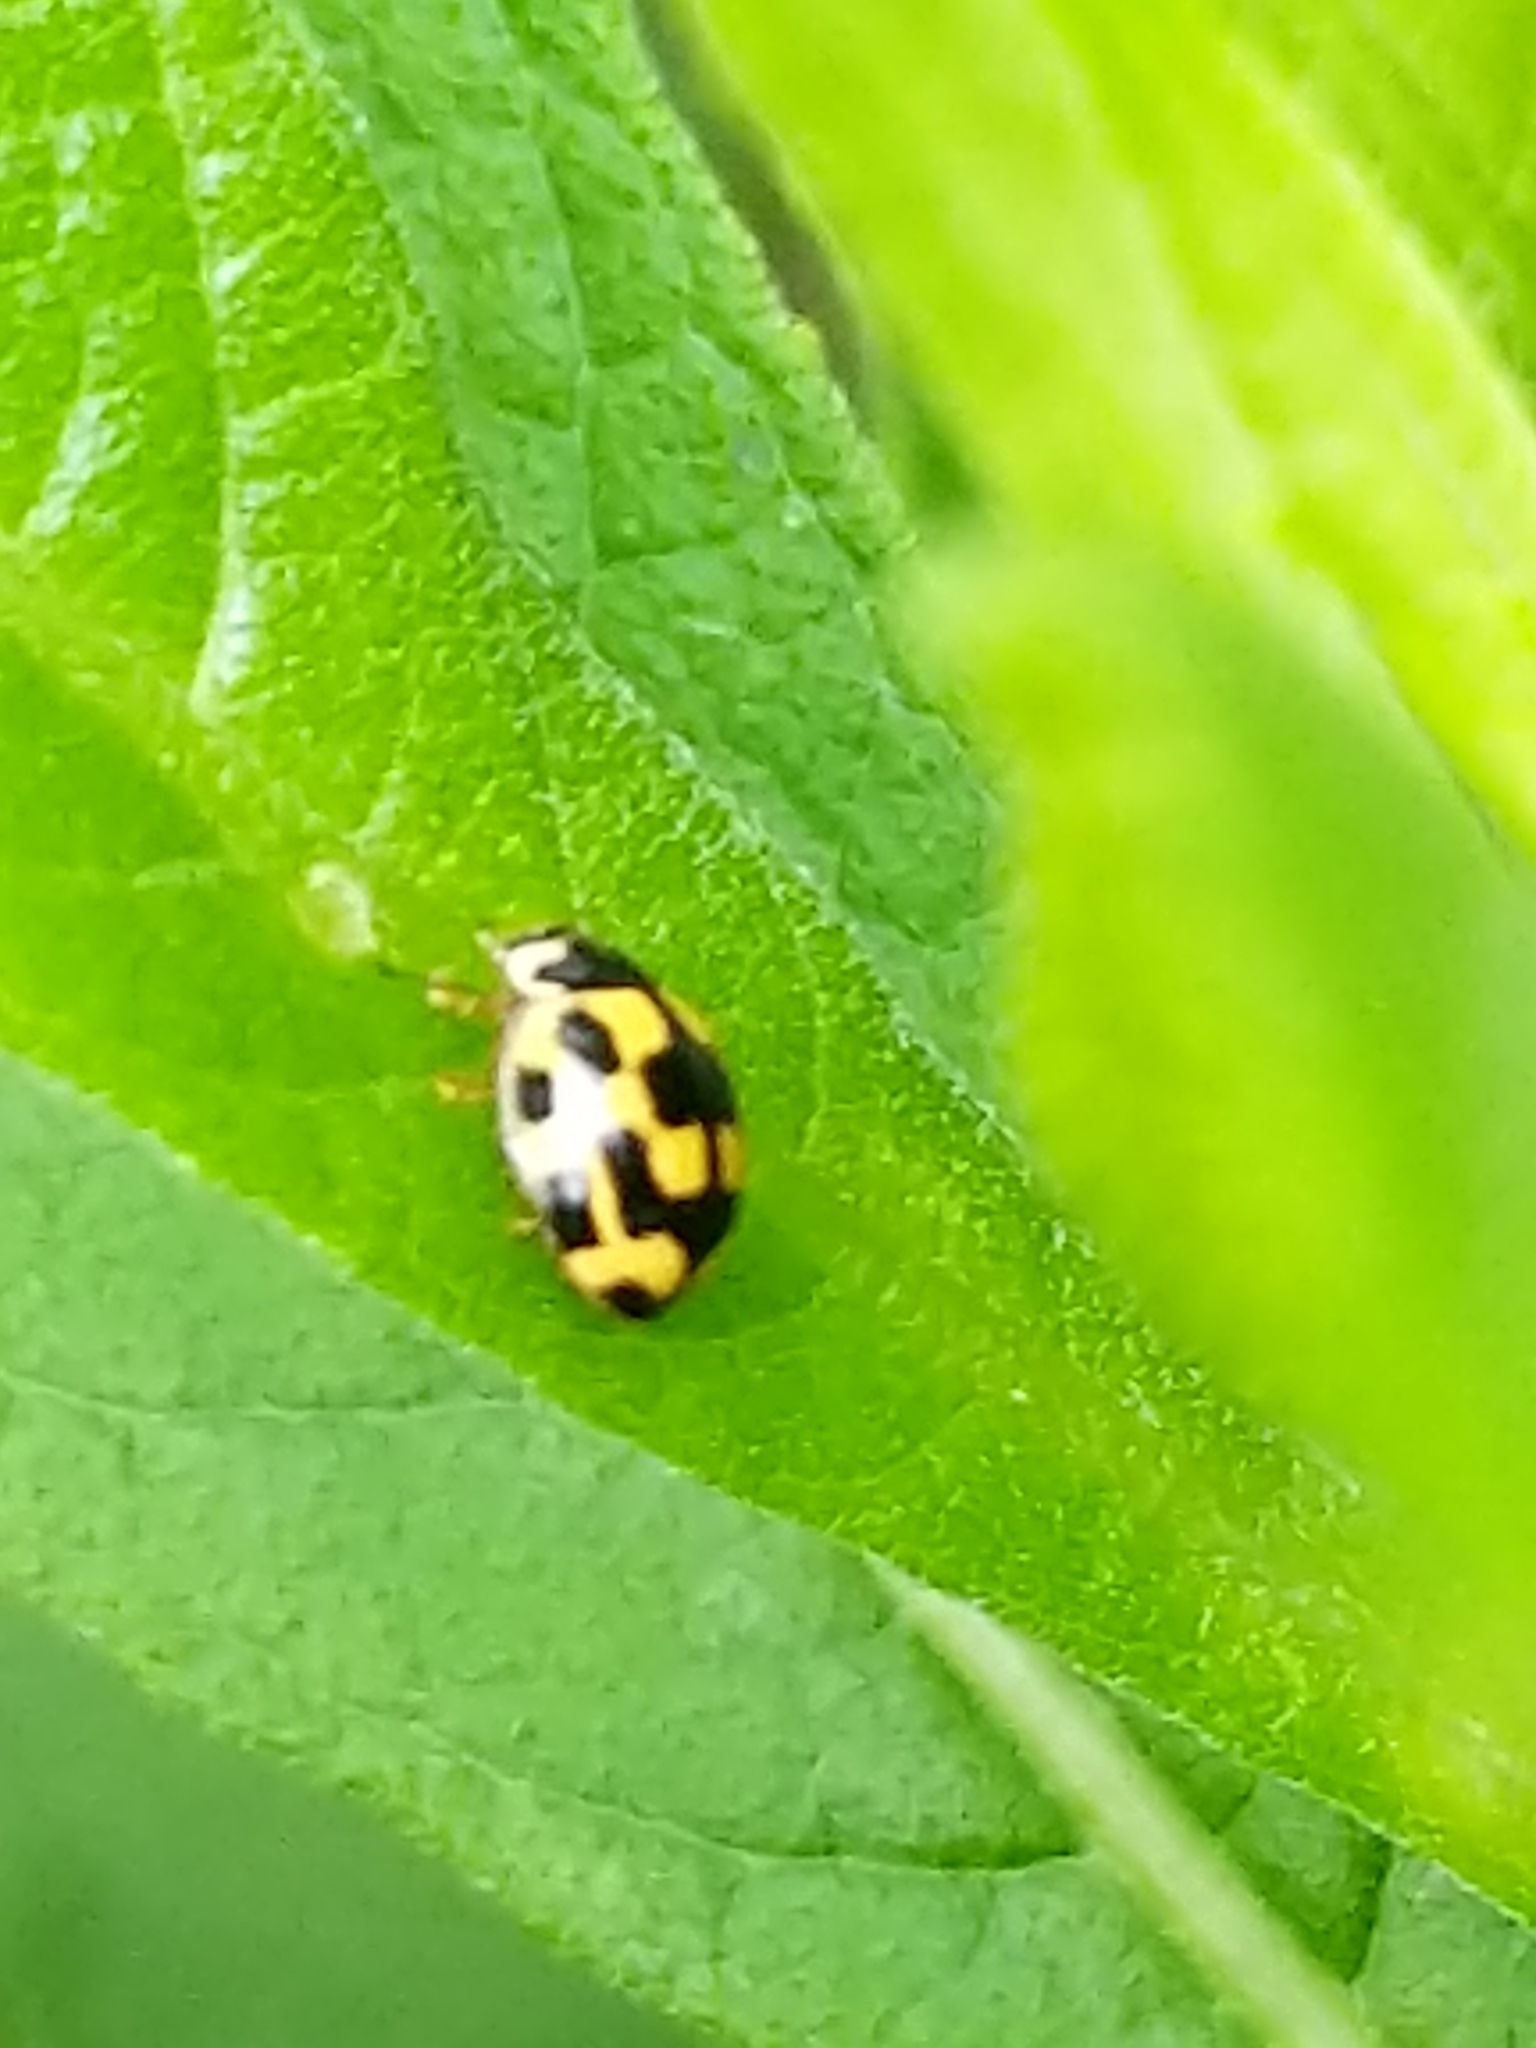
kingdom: Animalia
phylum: Arthropoda
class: Insecta
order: Coleoptera
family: Coccinellidae
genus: Propylaea
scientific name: Propylaea quatuordecimpunctata
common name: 14-spotted ladybird beetle
